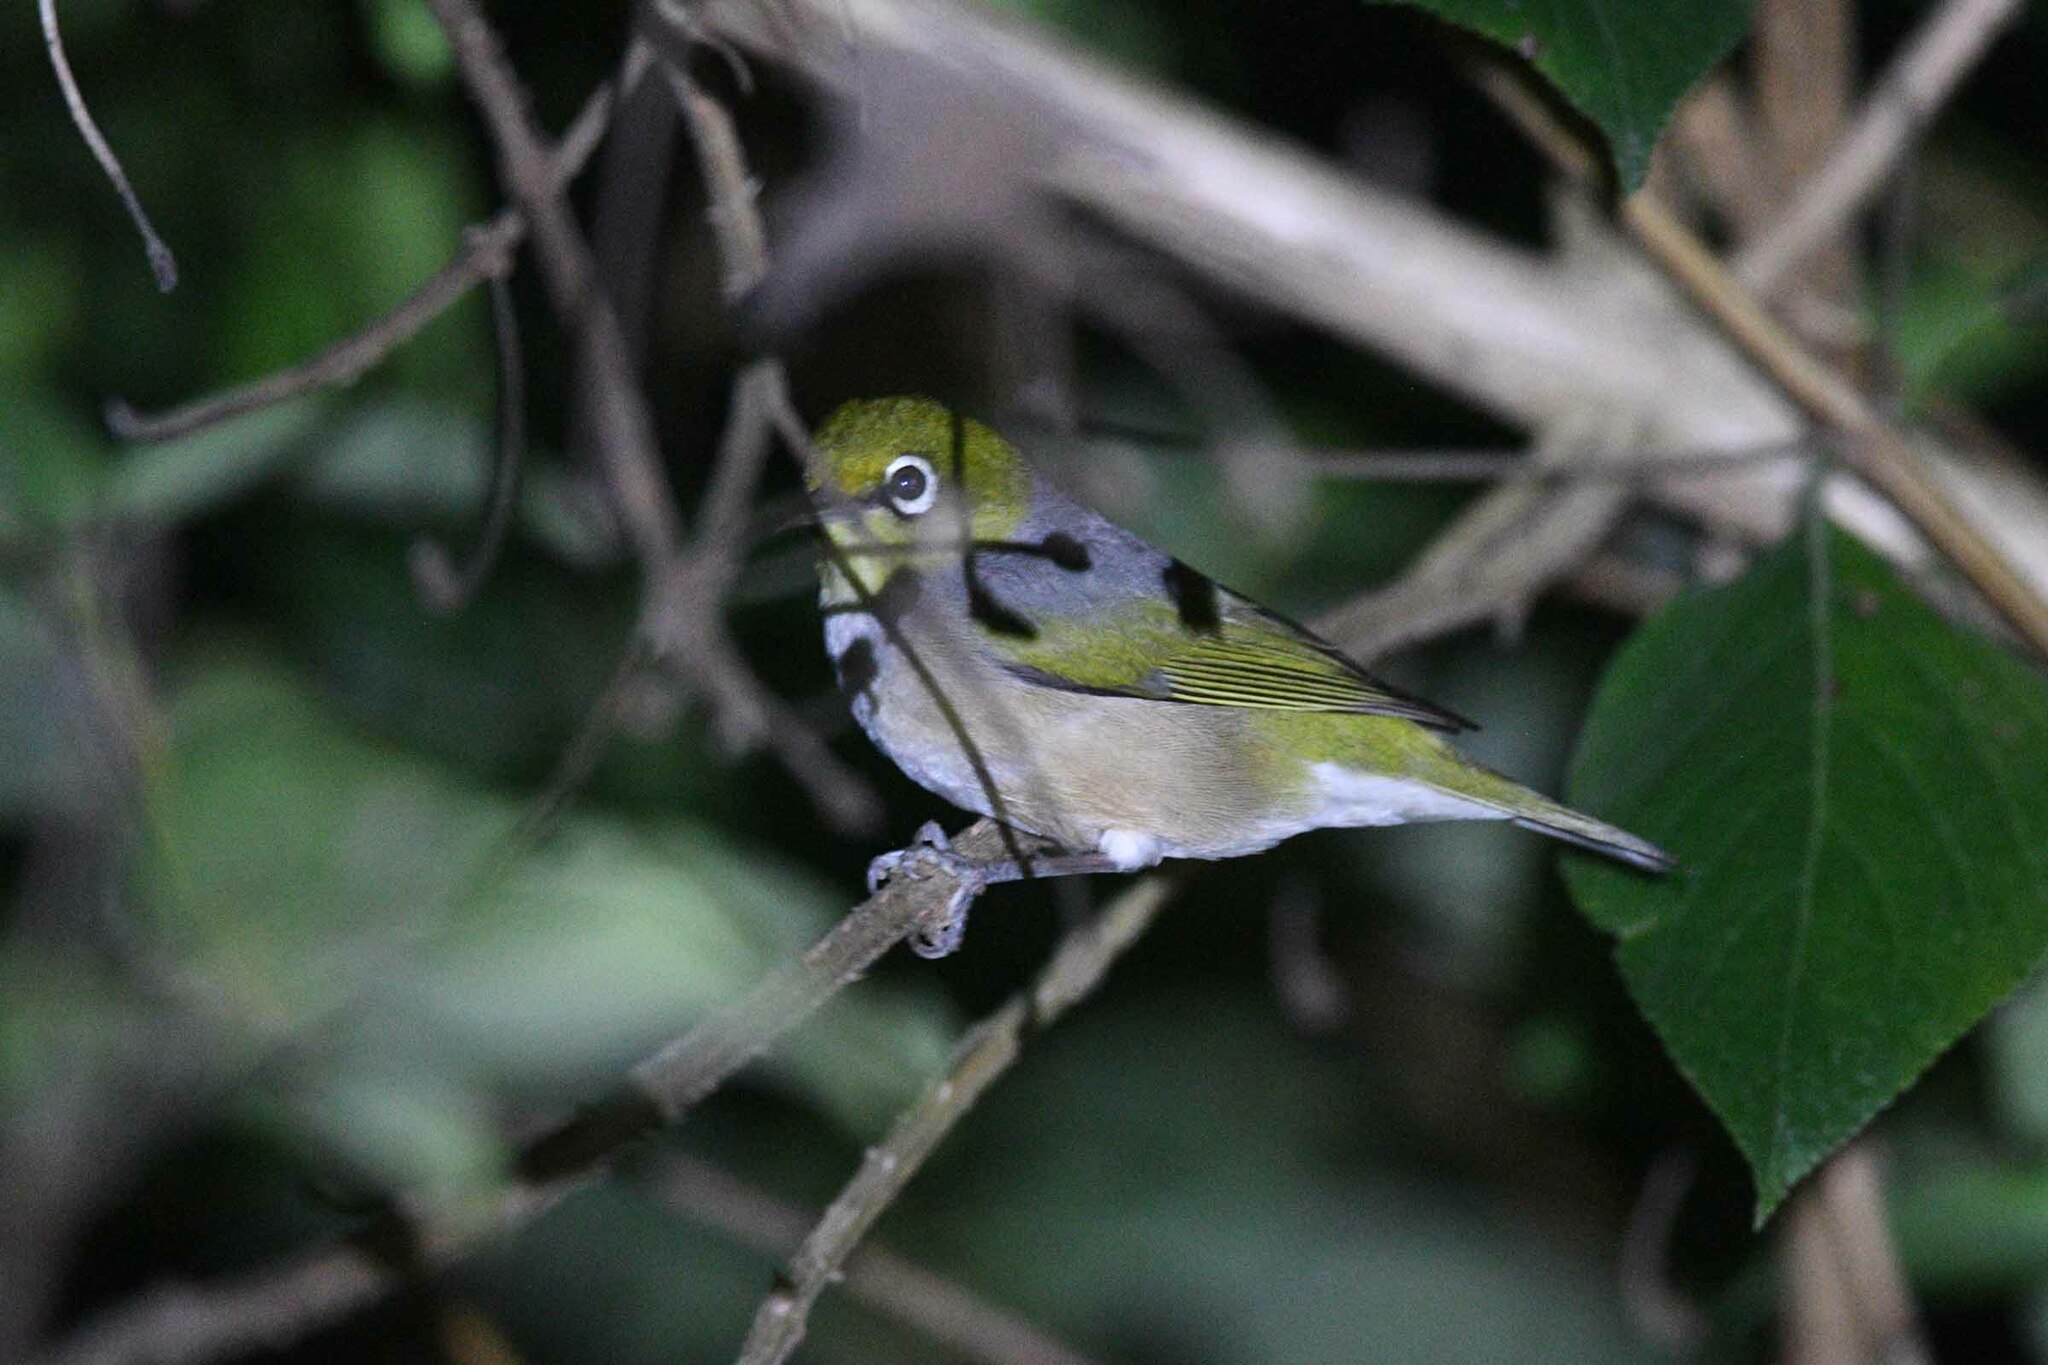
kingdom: Animalia
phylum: Chordata
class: Aves
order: Passeriformes
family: Zosteropidae
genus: Zosterops
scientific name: Zosterops lateralis
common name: Silvereye
